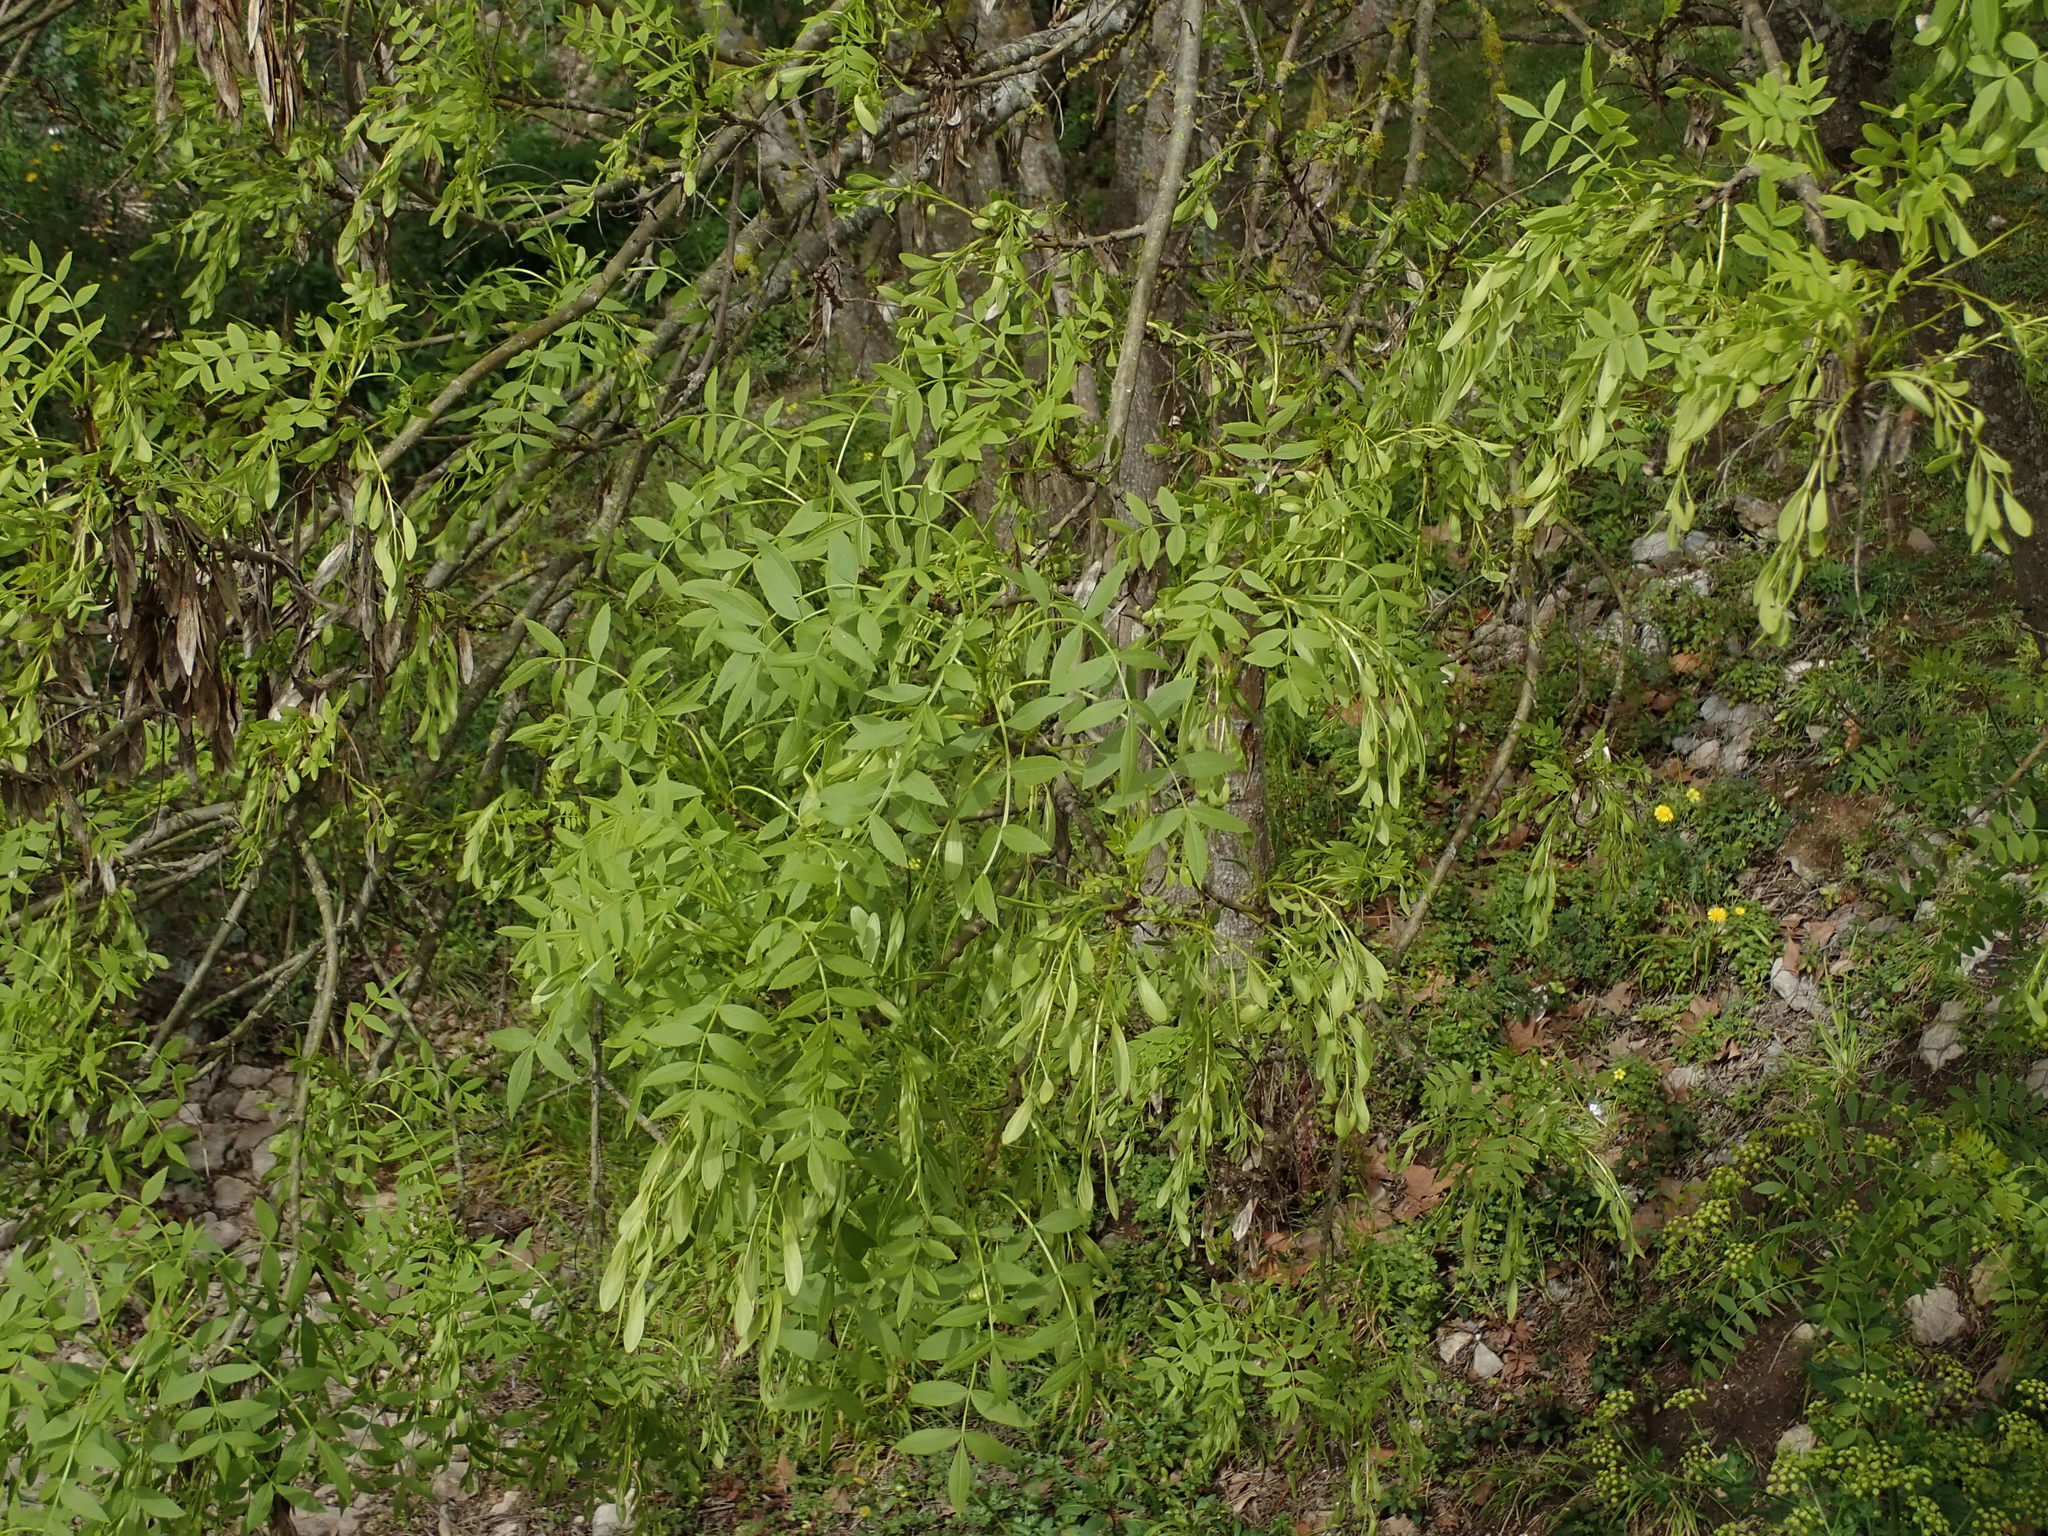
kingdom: Plantae
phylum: Tracheophyta
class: Magnoliopsida
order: Lamiales
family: Oleaceae
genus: Fraxinus
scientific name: Fraxinus angustifolia
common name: Narrow-leafed ash
